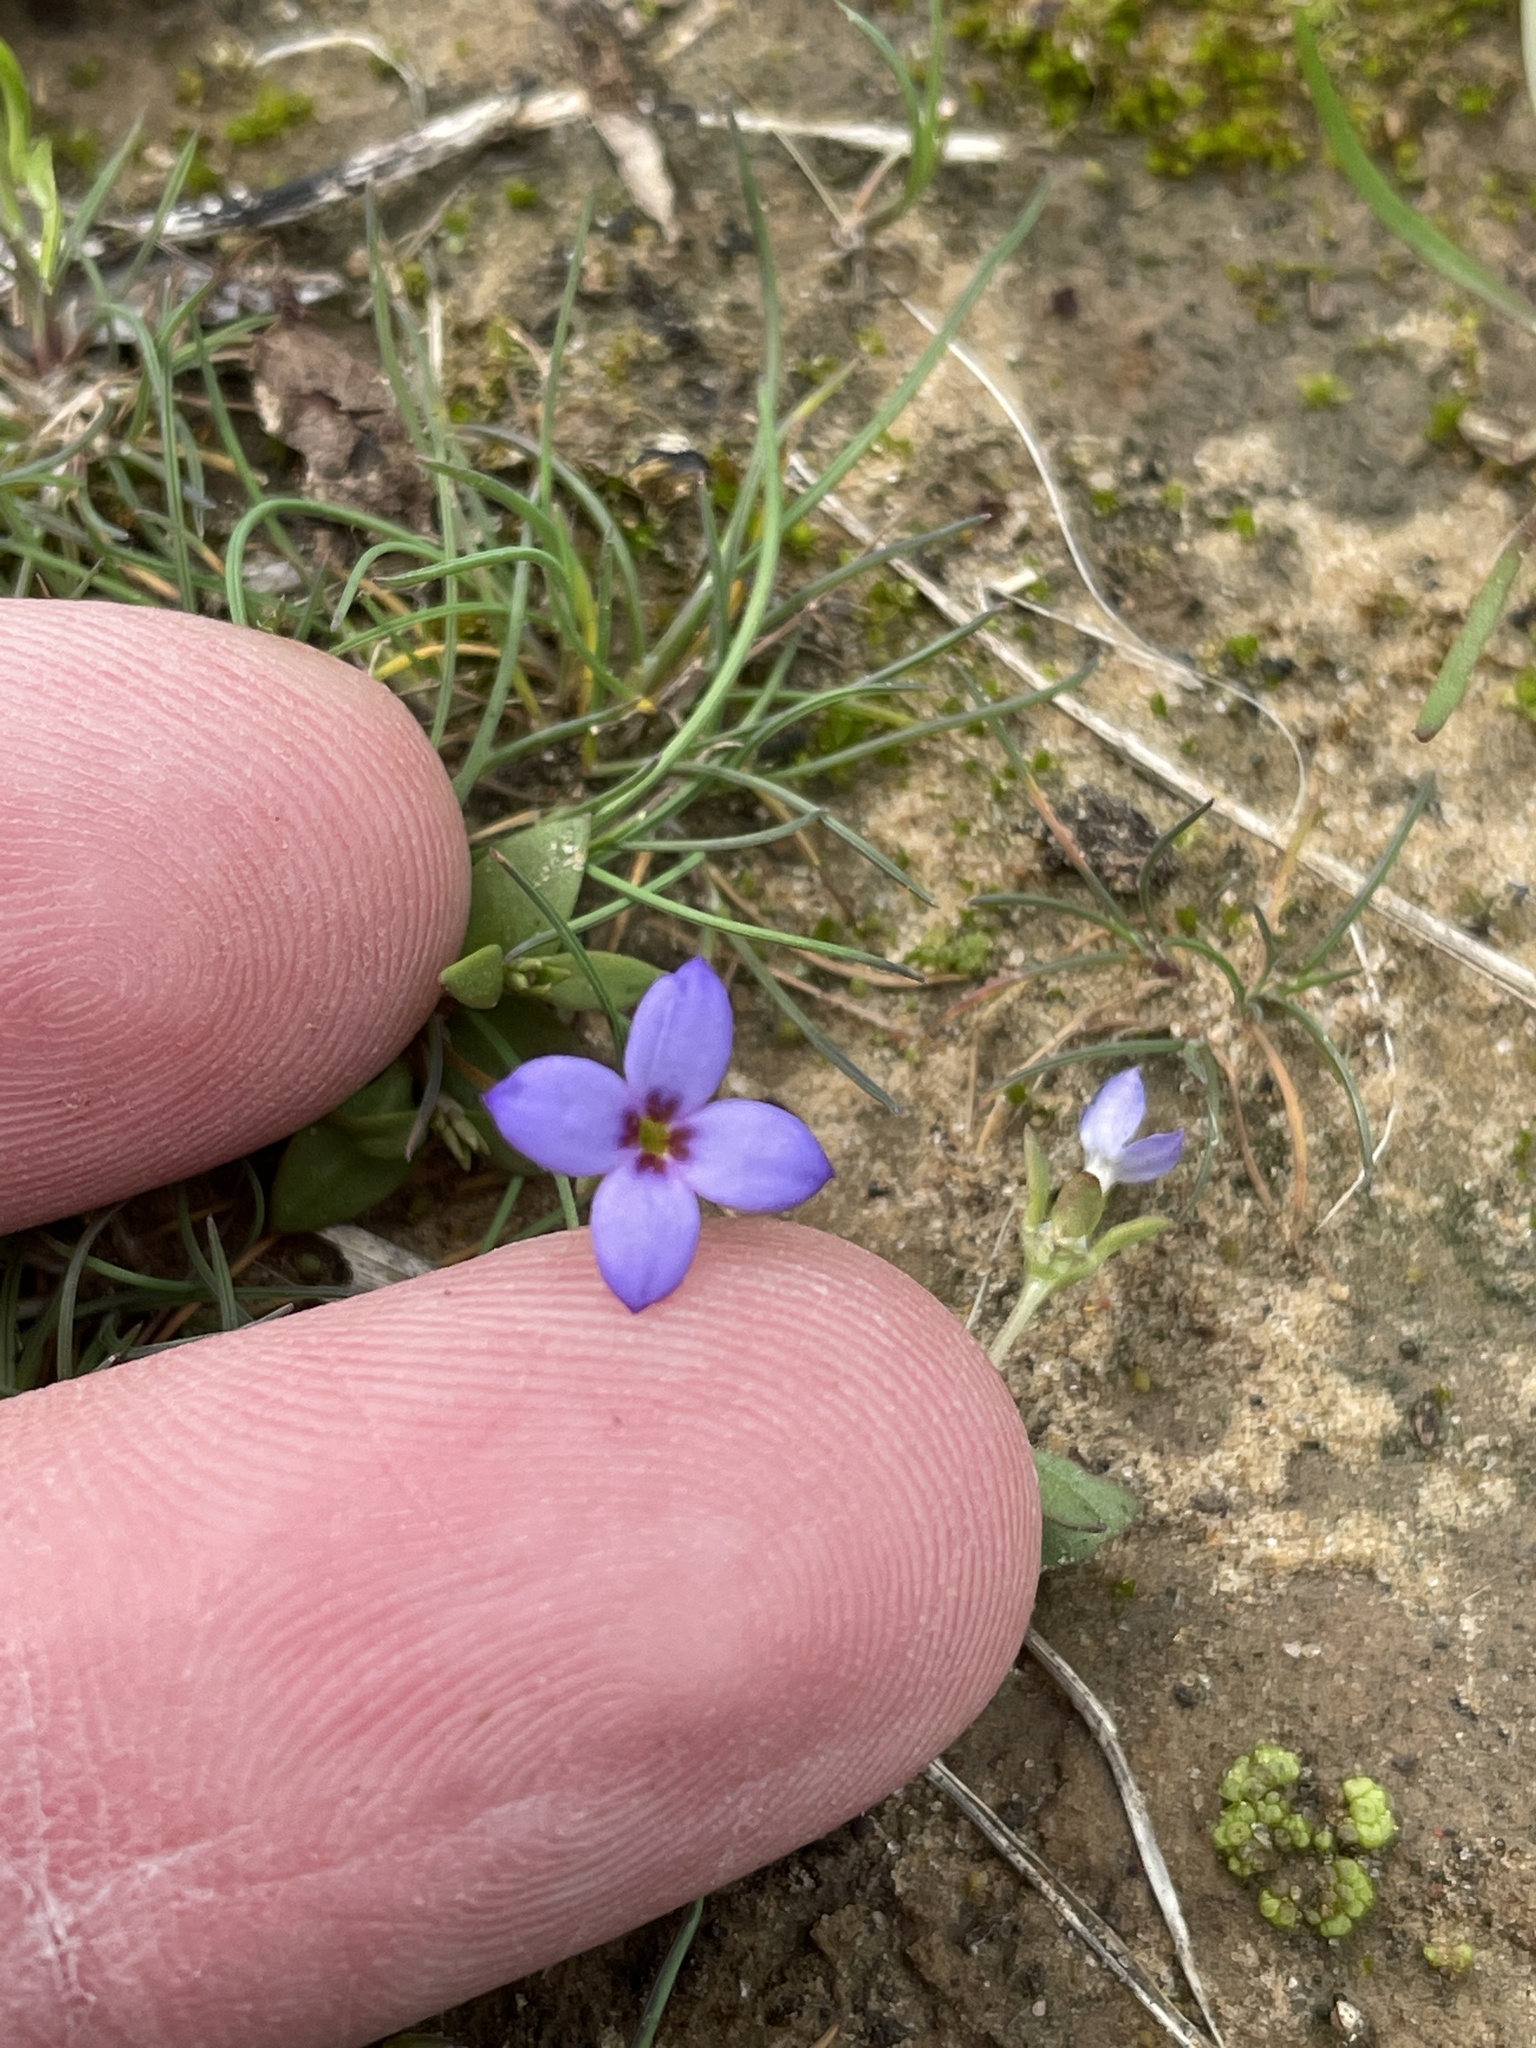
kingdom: Plantae
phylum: Tracheophyta
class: Magnoliopsida
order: Gentianales
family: Rubiaceae
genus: Houstonia
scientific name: Houstonia pusilla
